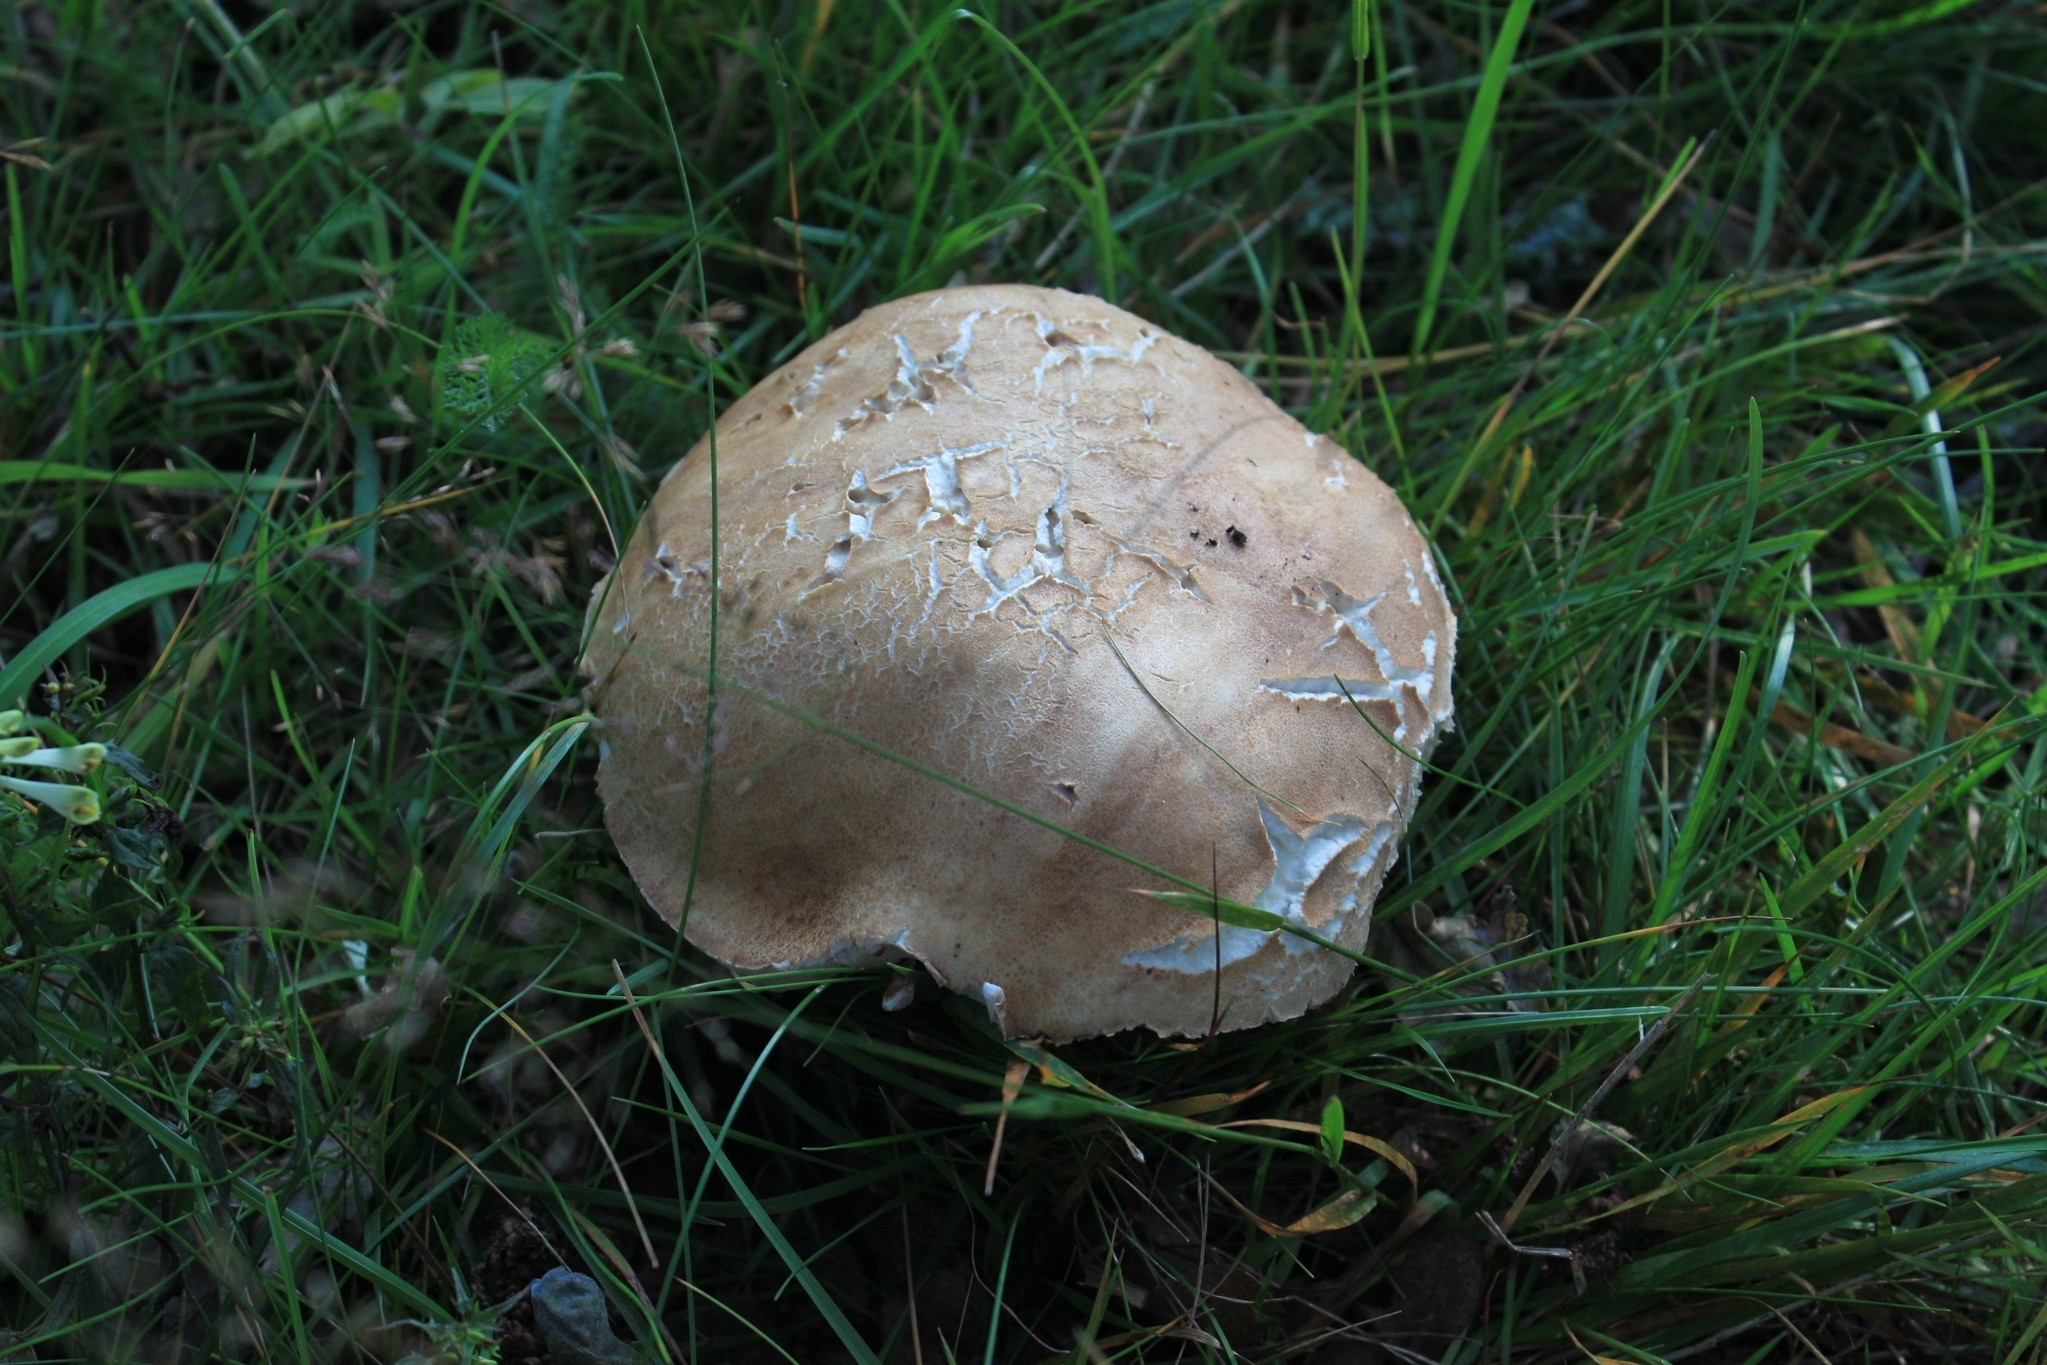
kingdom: Fungi
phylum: Basidiomycota
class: Agaricomycetes
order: Boletales
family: Boletaceae
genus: Boletus
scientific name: Boletus reticulatus
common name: Summer bolete
